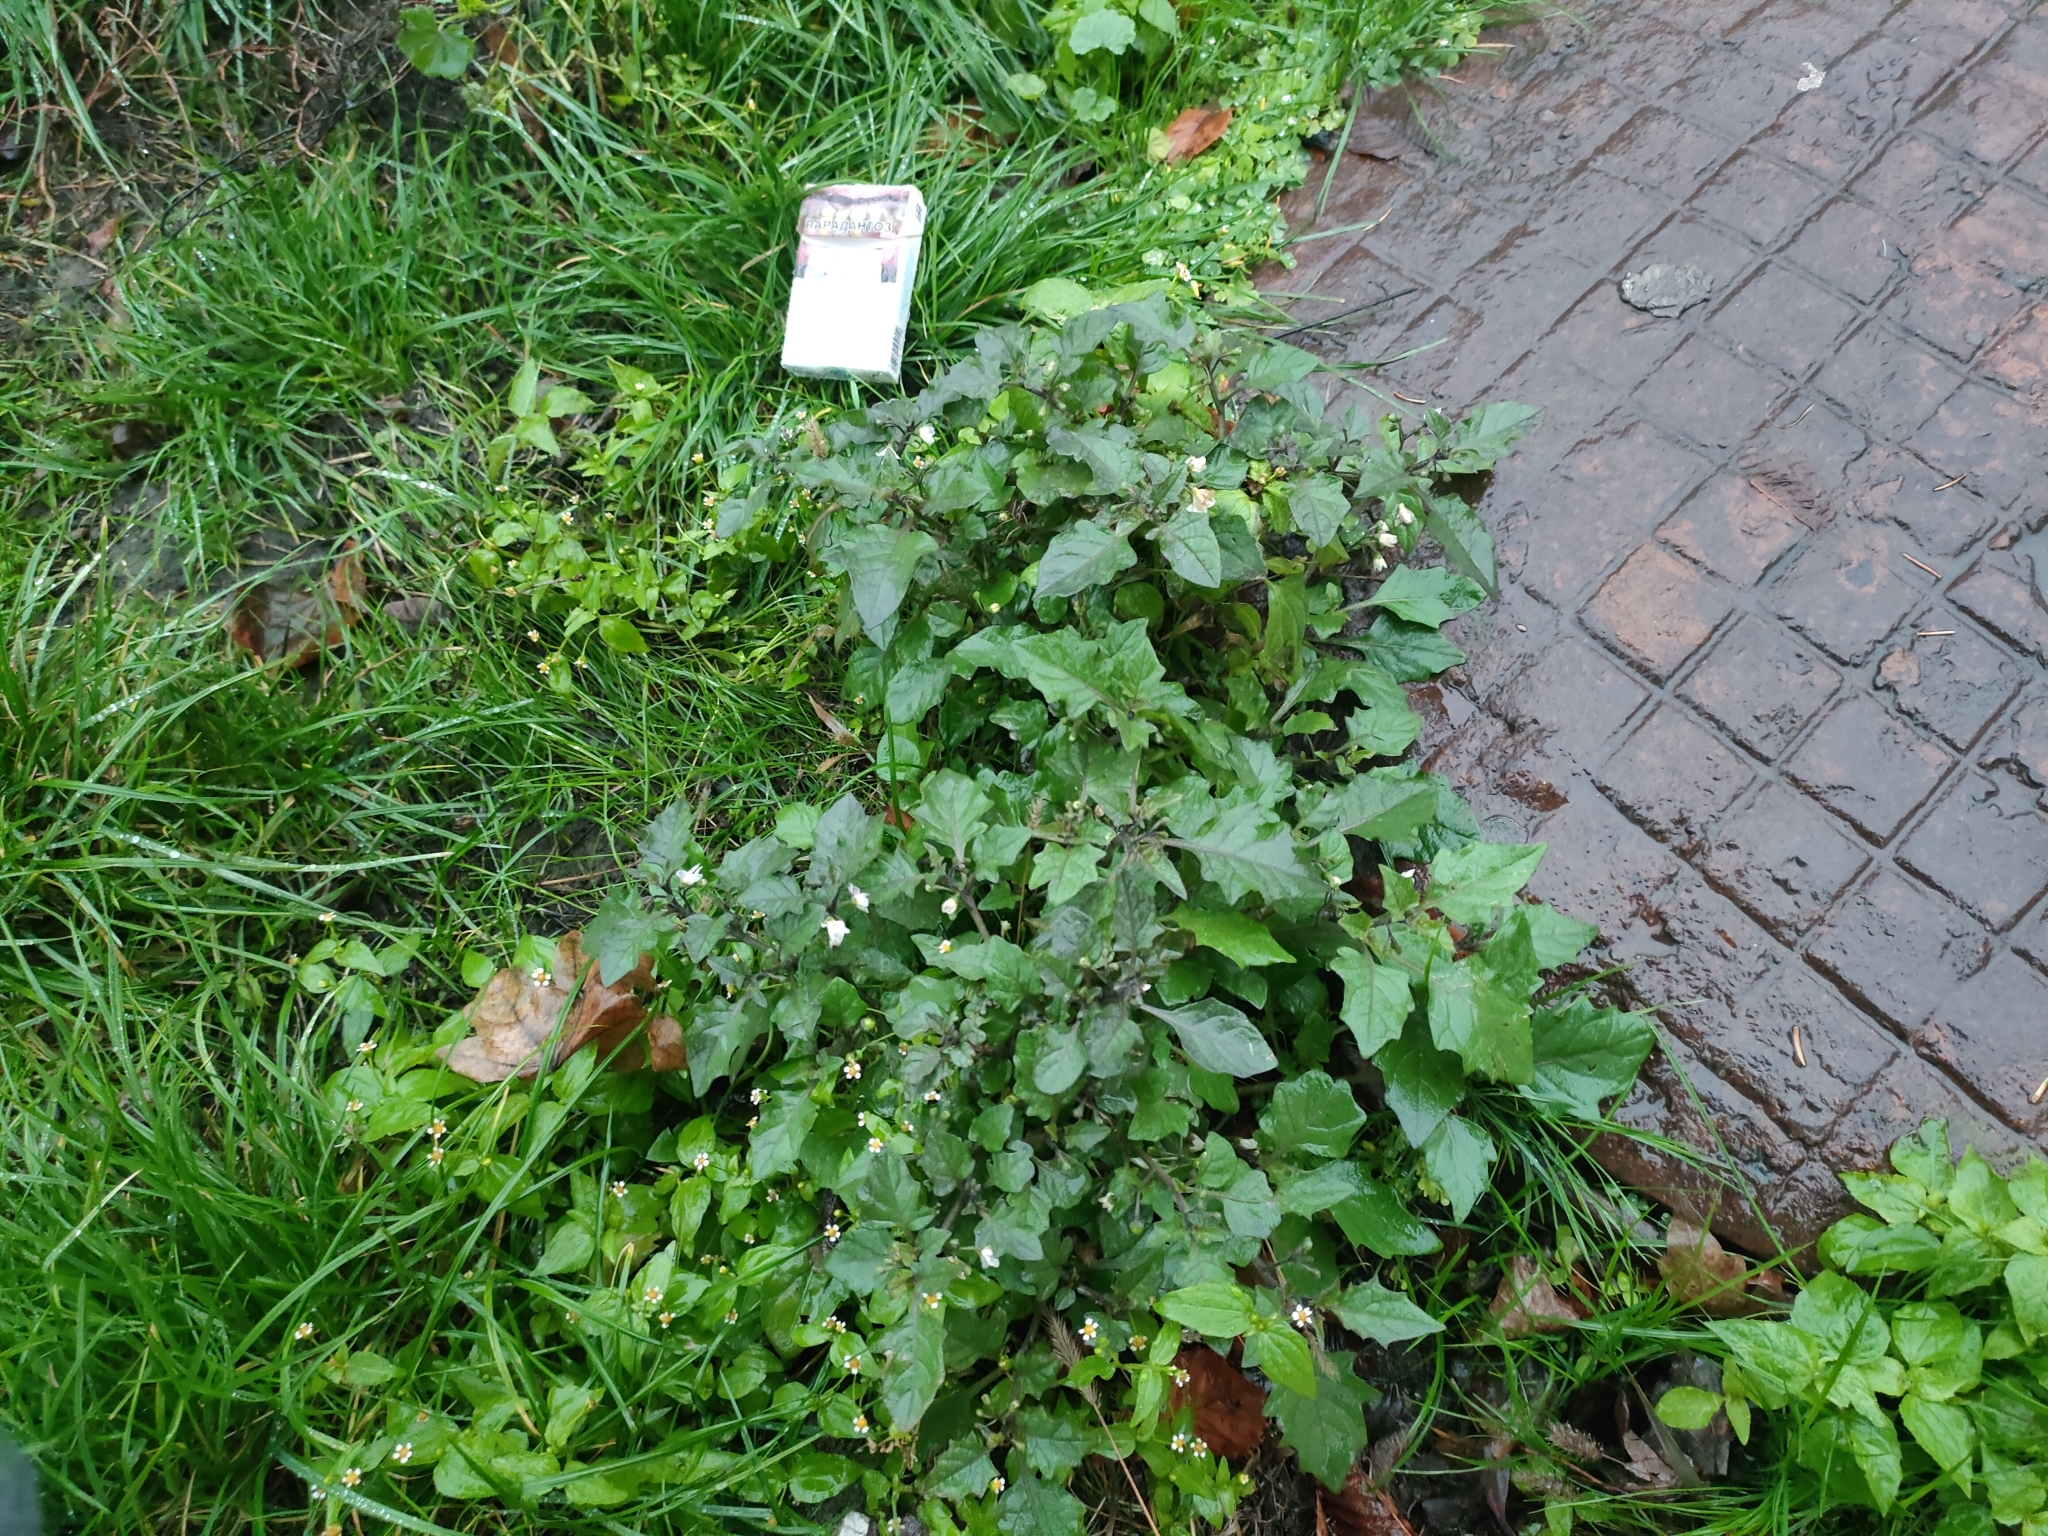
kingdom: Plantae
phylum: Tracheophyta
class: Magnoliopsida
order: Solanales
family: Solanaceae
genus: Solanum
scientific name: Solanum nigrum
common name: Black nightshade
